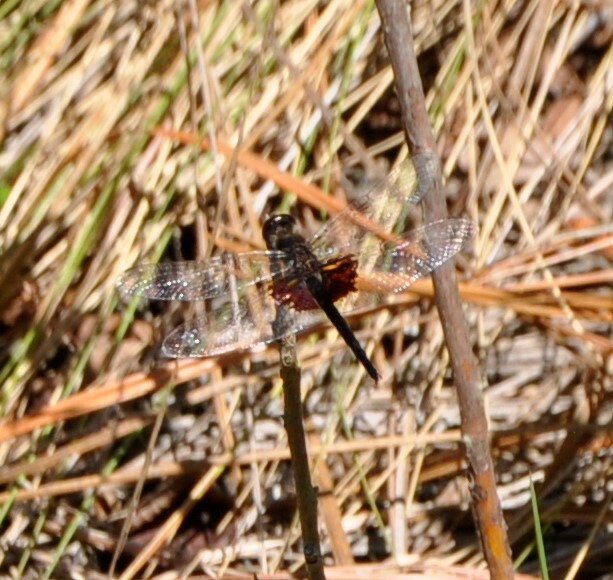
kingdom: Animalia
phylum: Arthropoda
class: Insecta
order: Odonata
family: Libellulidae
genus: Celithemis
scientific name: Celithemis ornata
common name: Ornate pennant
